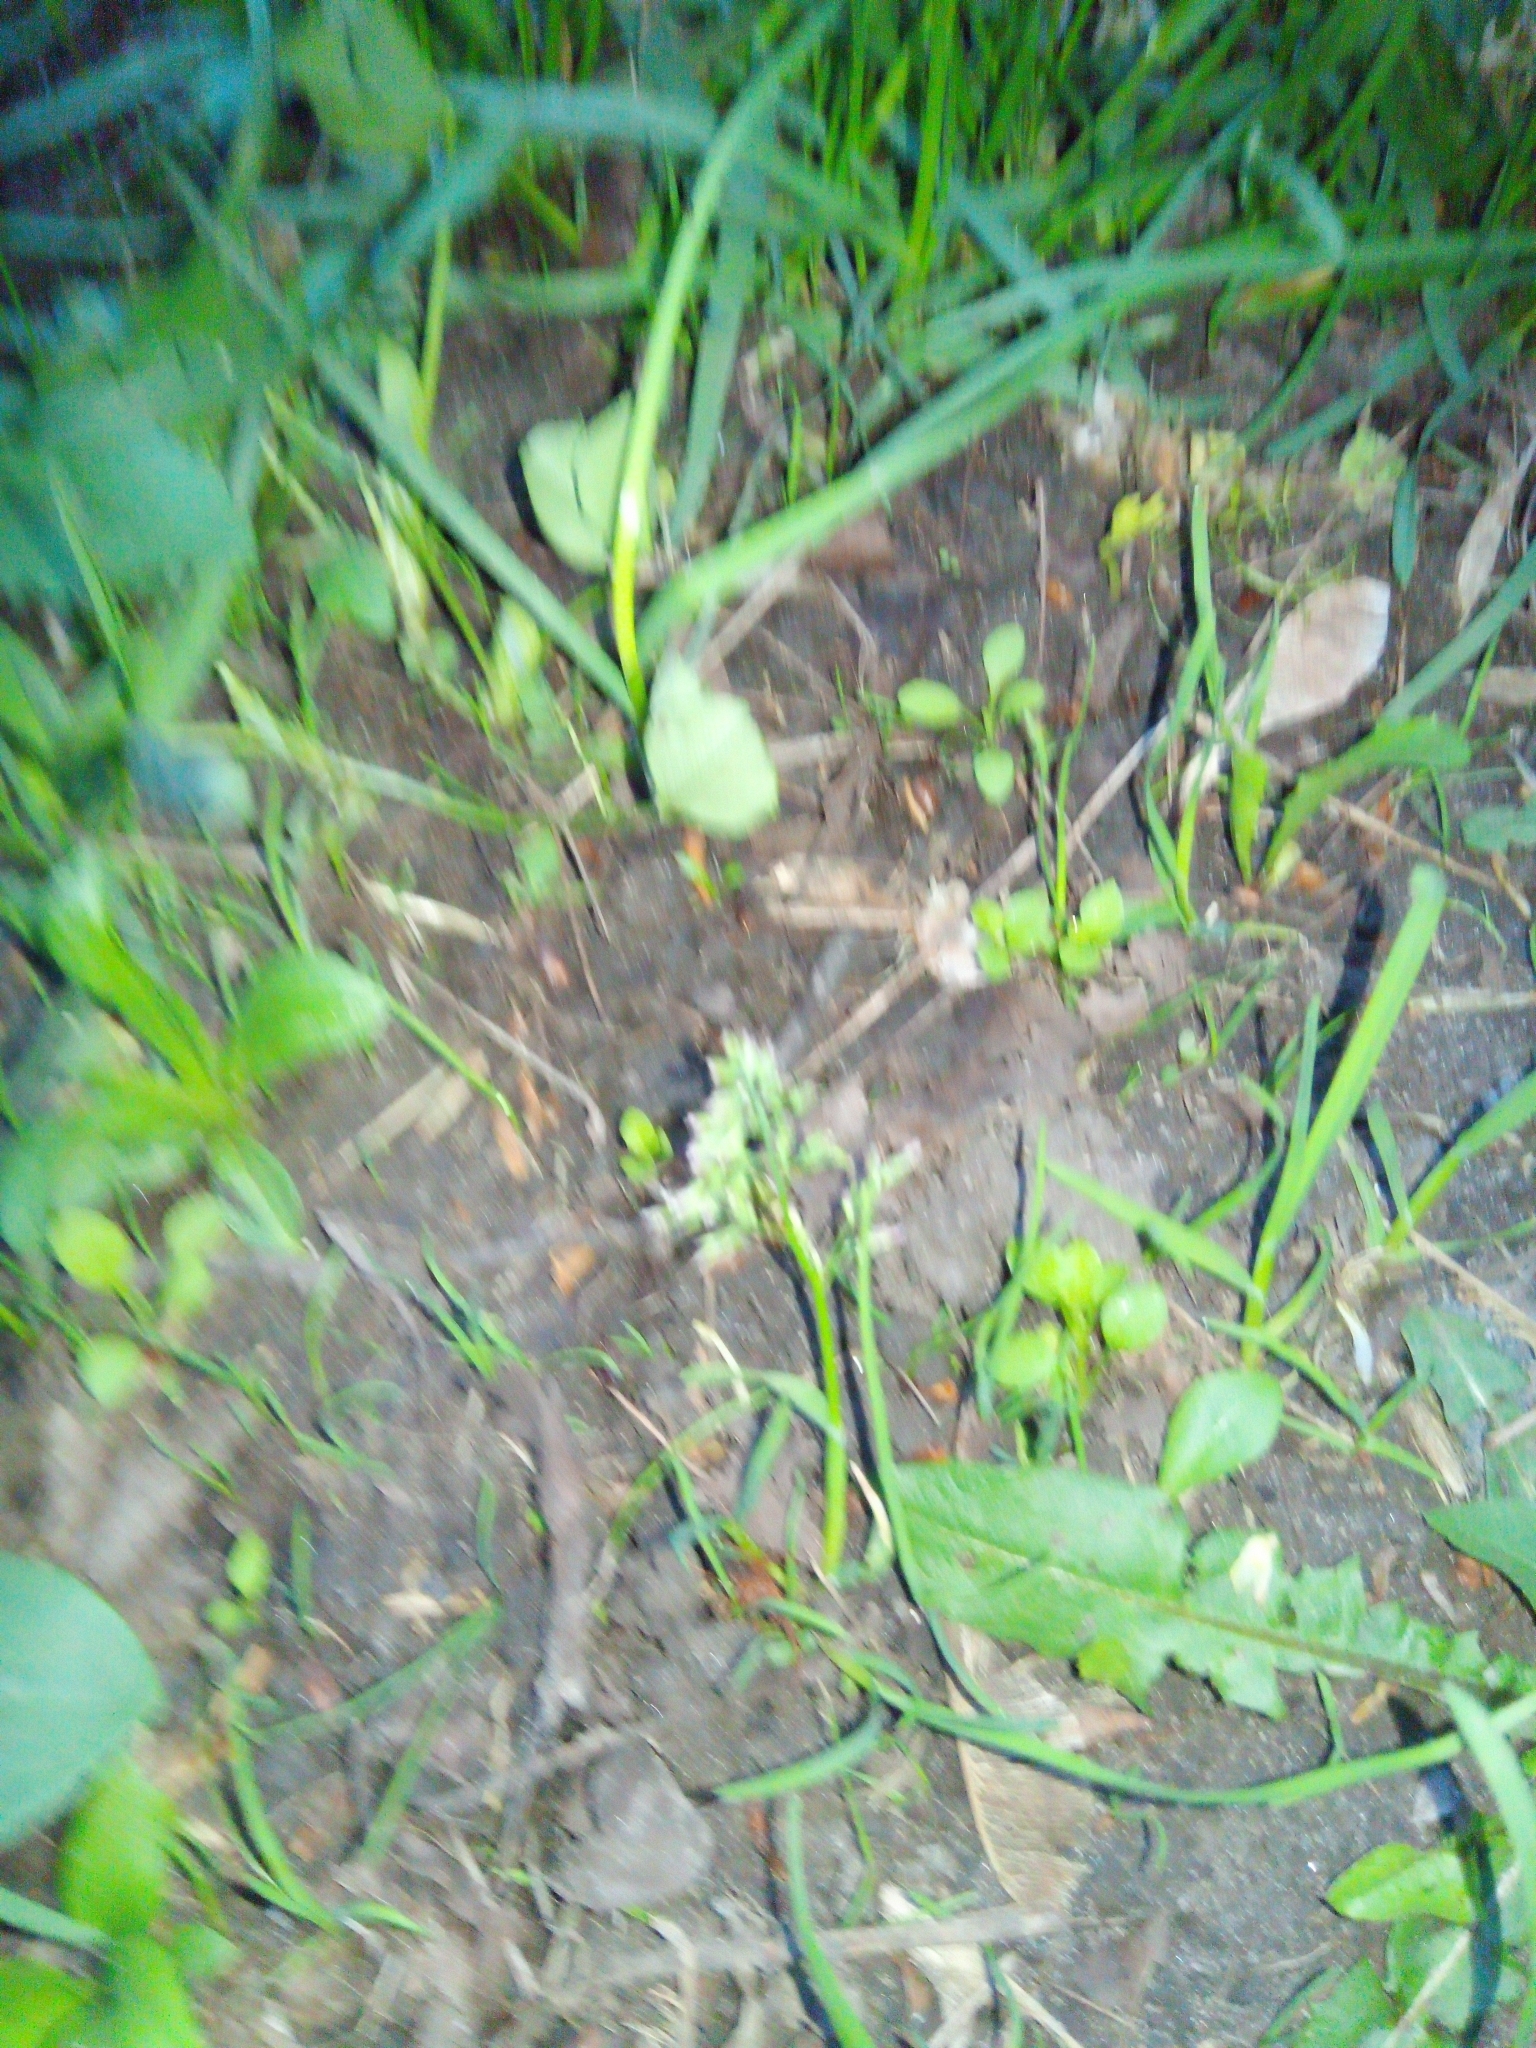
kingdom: Plantae
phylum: Tracheophyta
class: Liliopsida
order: Poales
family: Poaceae
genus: Poa
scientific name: Poa annua
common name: Annual bluegrass
